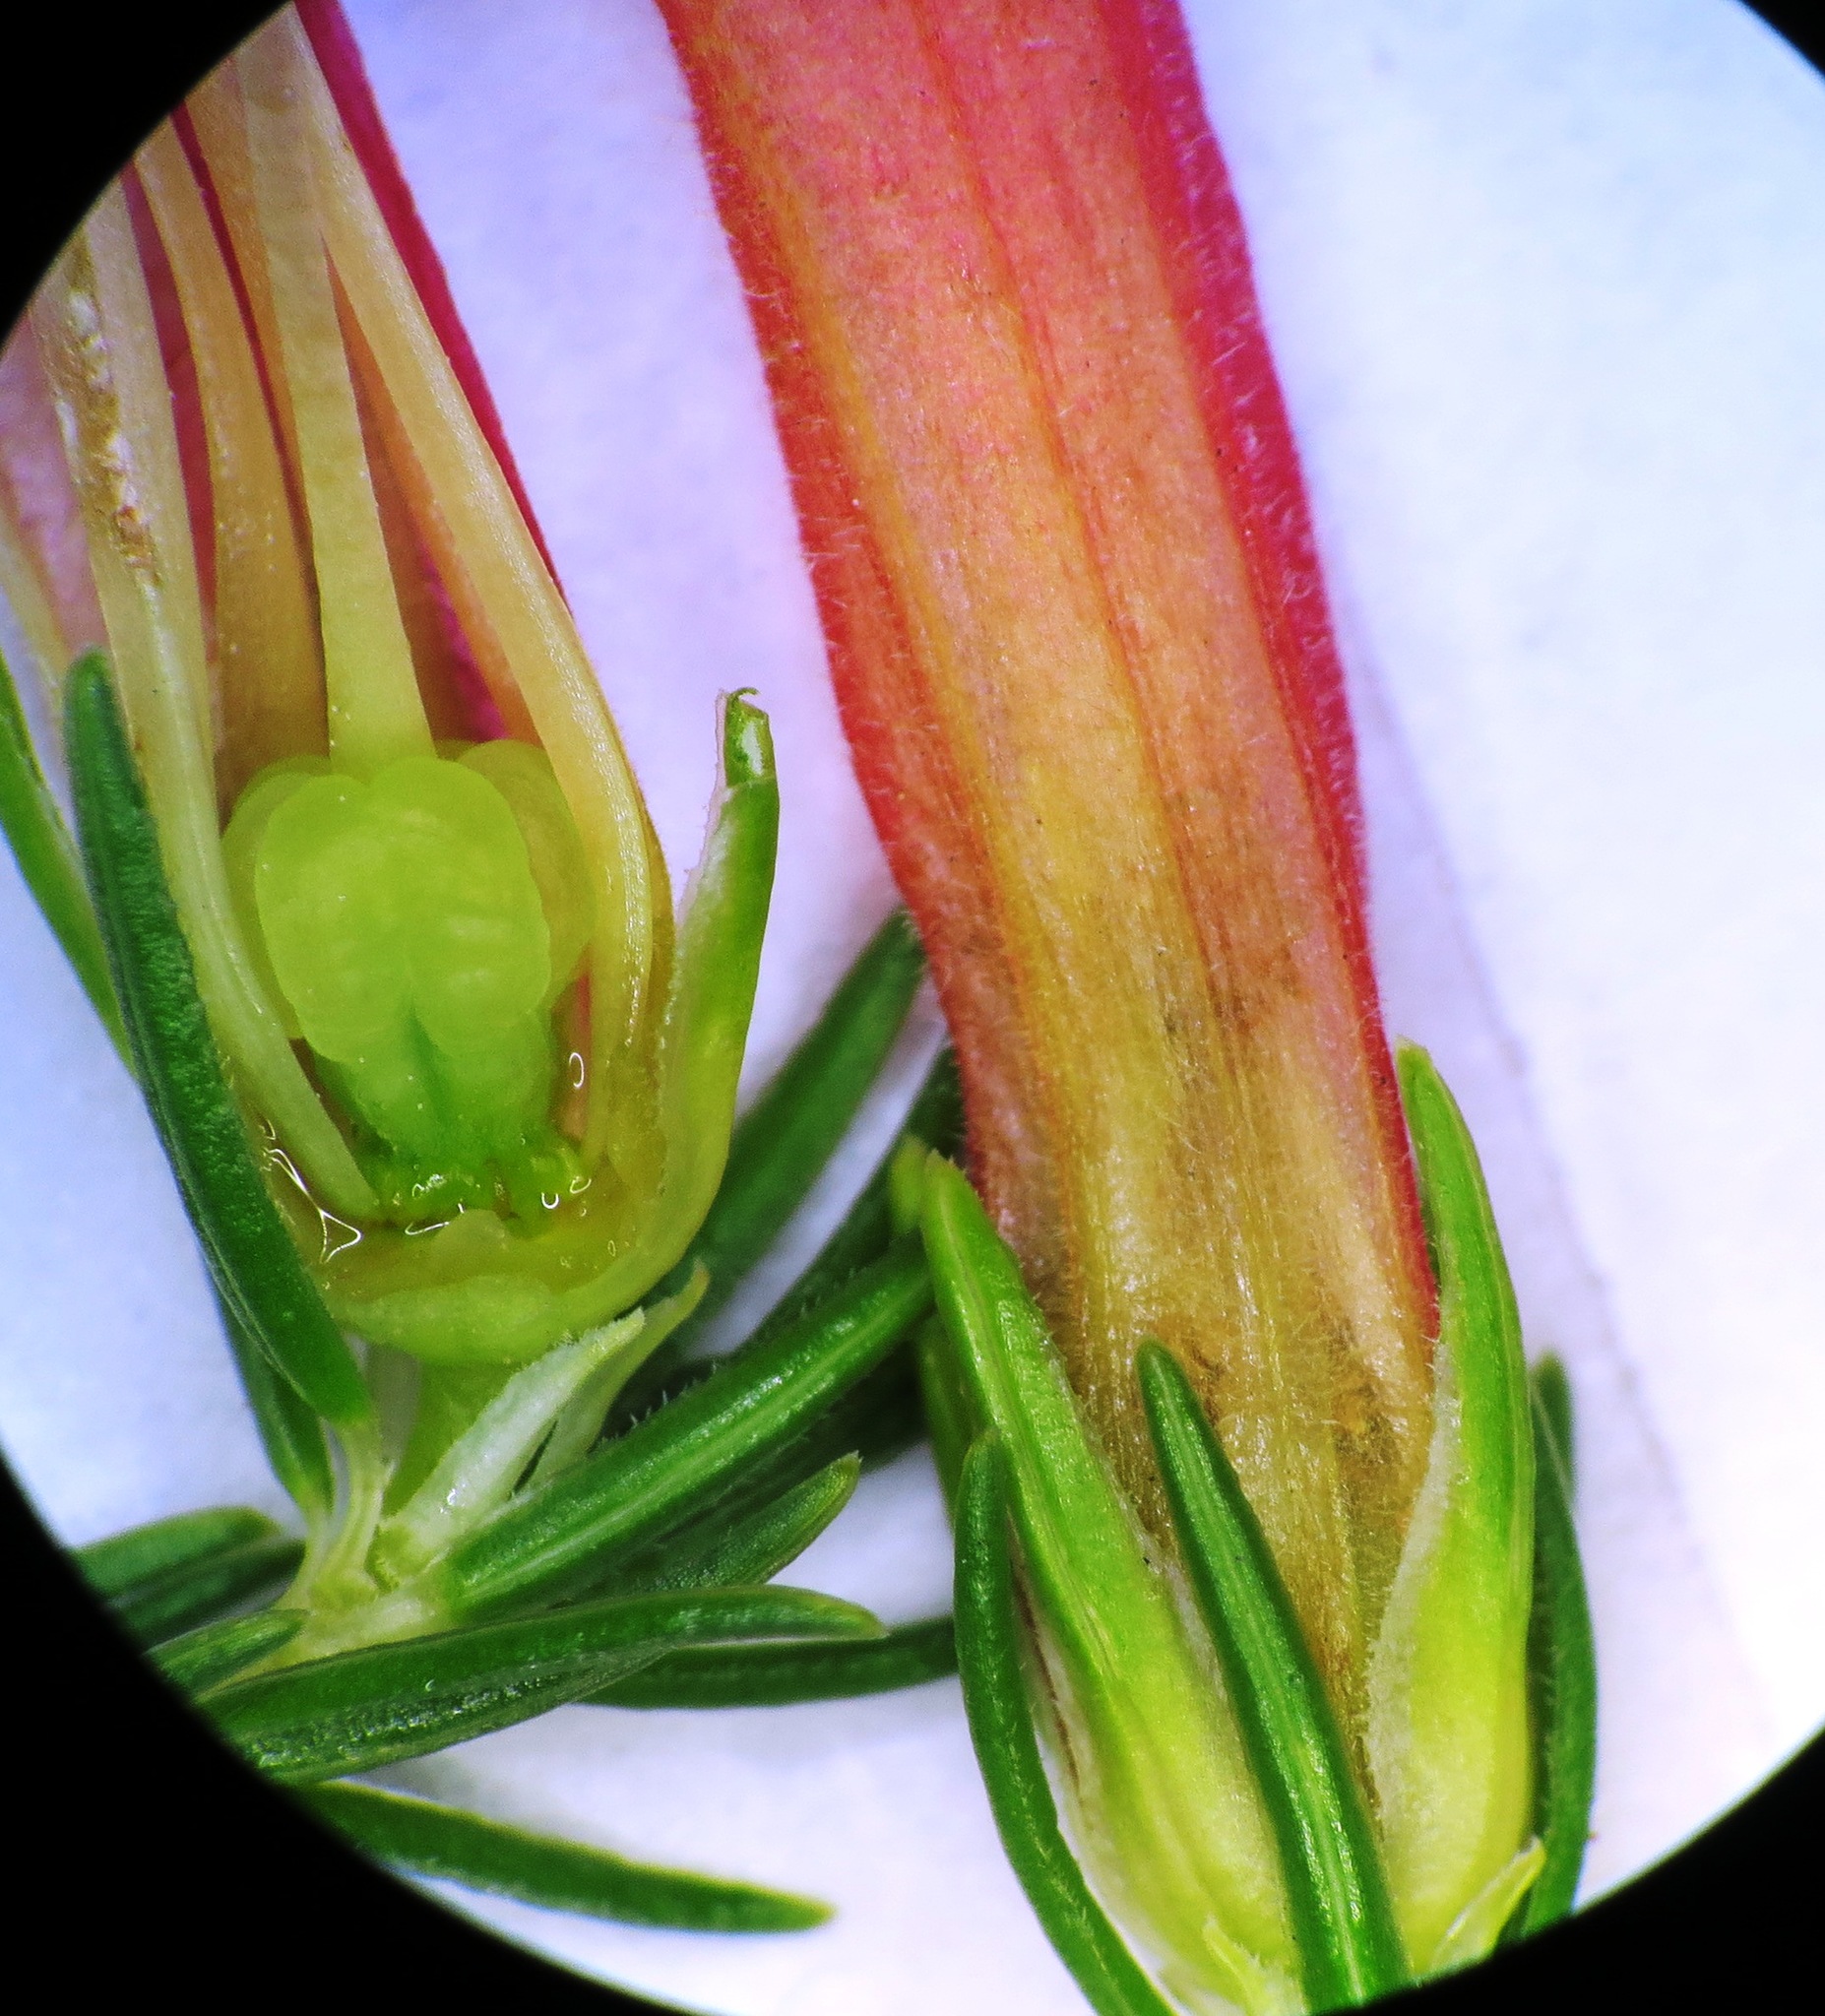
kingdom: Plantae
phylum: Tracheophyta
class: Magnoliopsida
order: Ericales
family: Ericaceae
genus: Erica
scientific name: Erica curviflora
